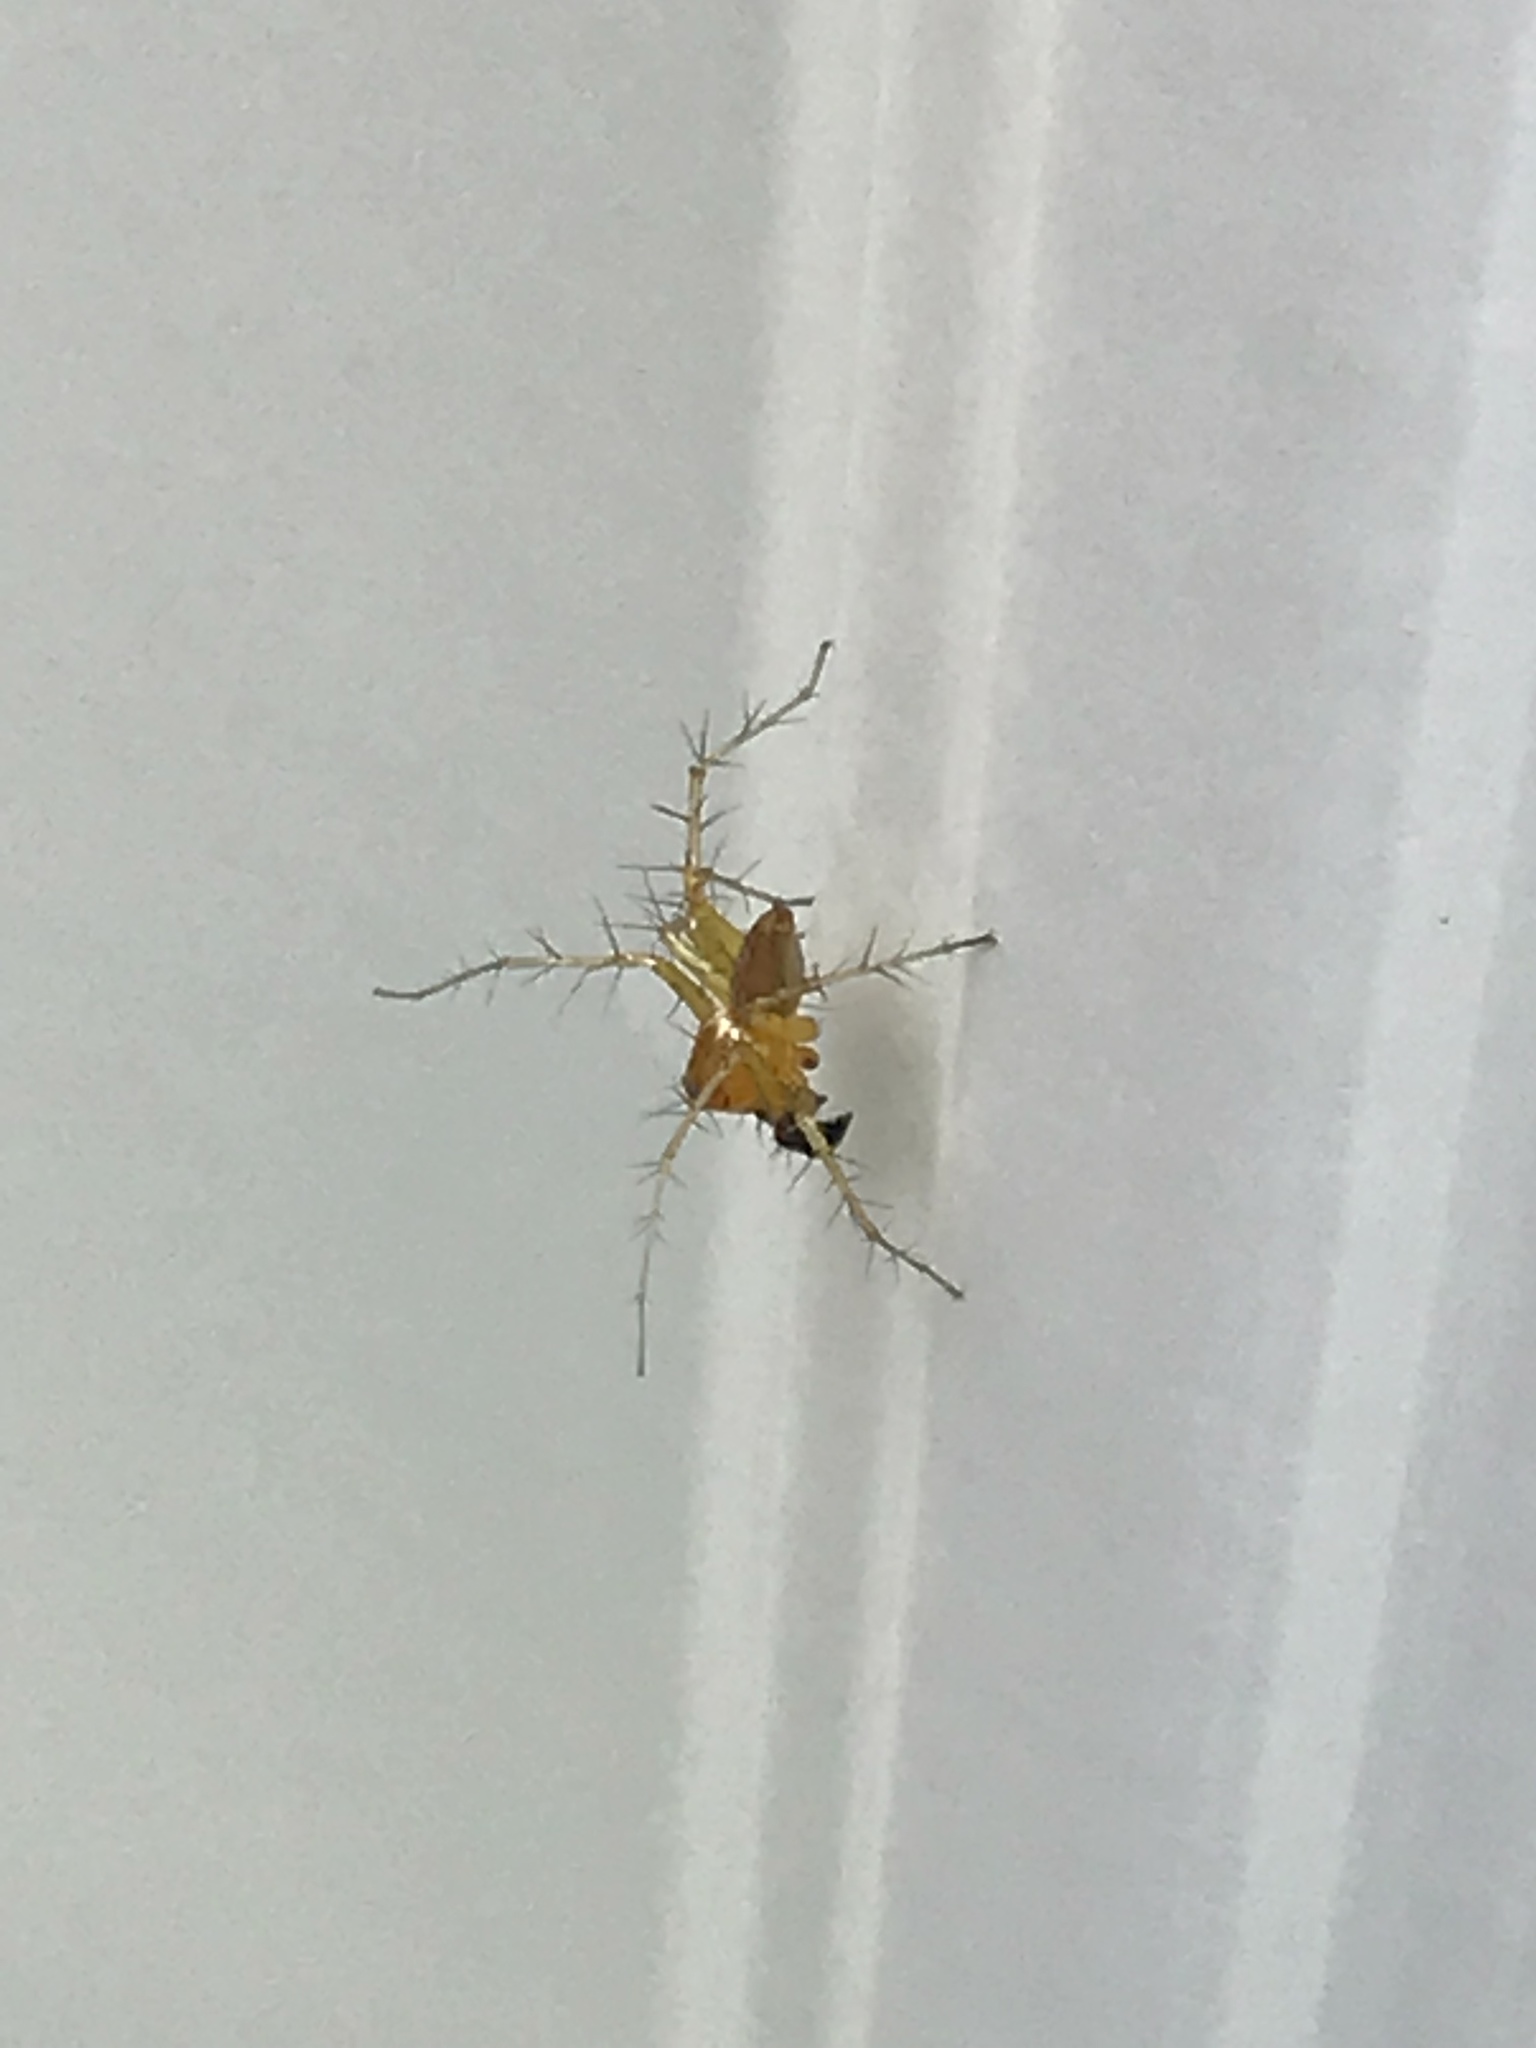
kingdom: Animalia
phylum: Arthropoda
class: Arachnida
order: Araneae
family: Oxyopidae
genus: Oxyopes
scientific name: Oxyopes salticus
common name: Lynx spiders
